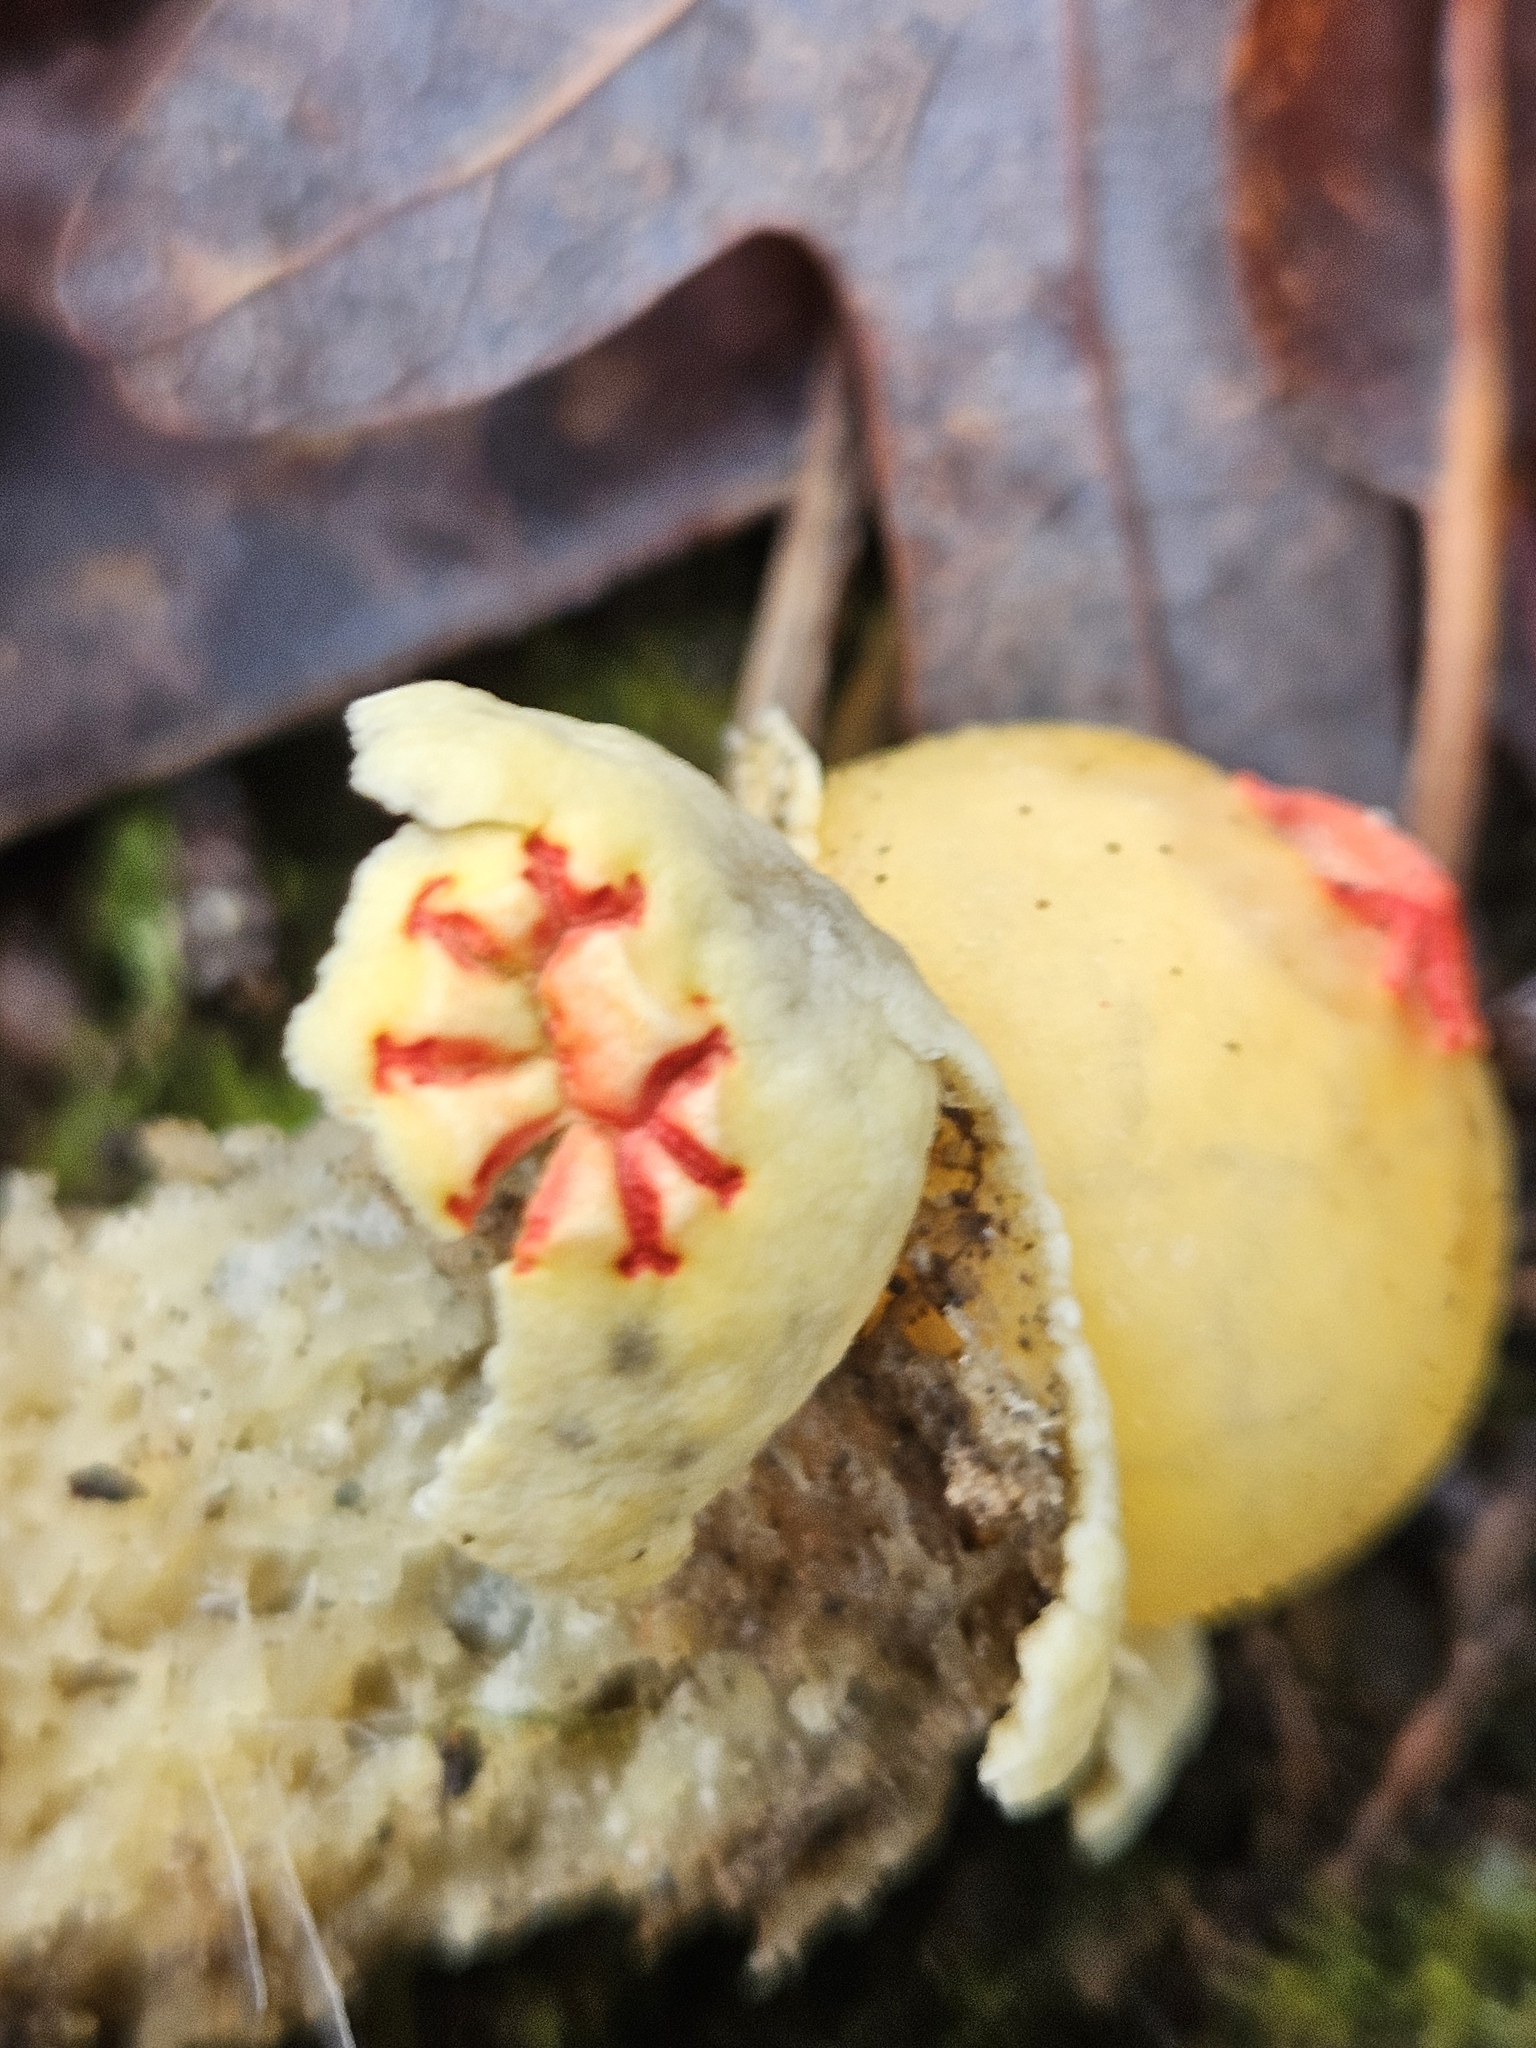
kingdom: Fungi
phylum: Basidiomycota
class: Agaricomycetes
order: Boletales
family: Calostomataceae
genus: Calostoma
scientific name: Calostoma lutescens
